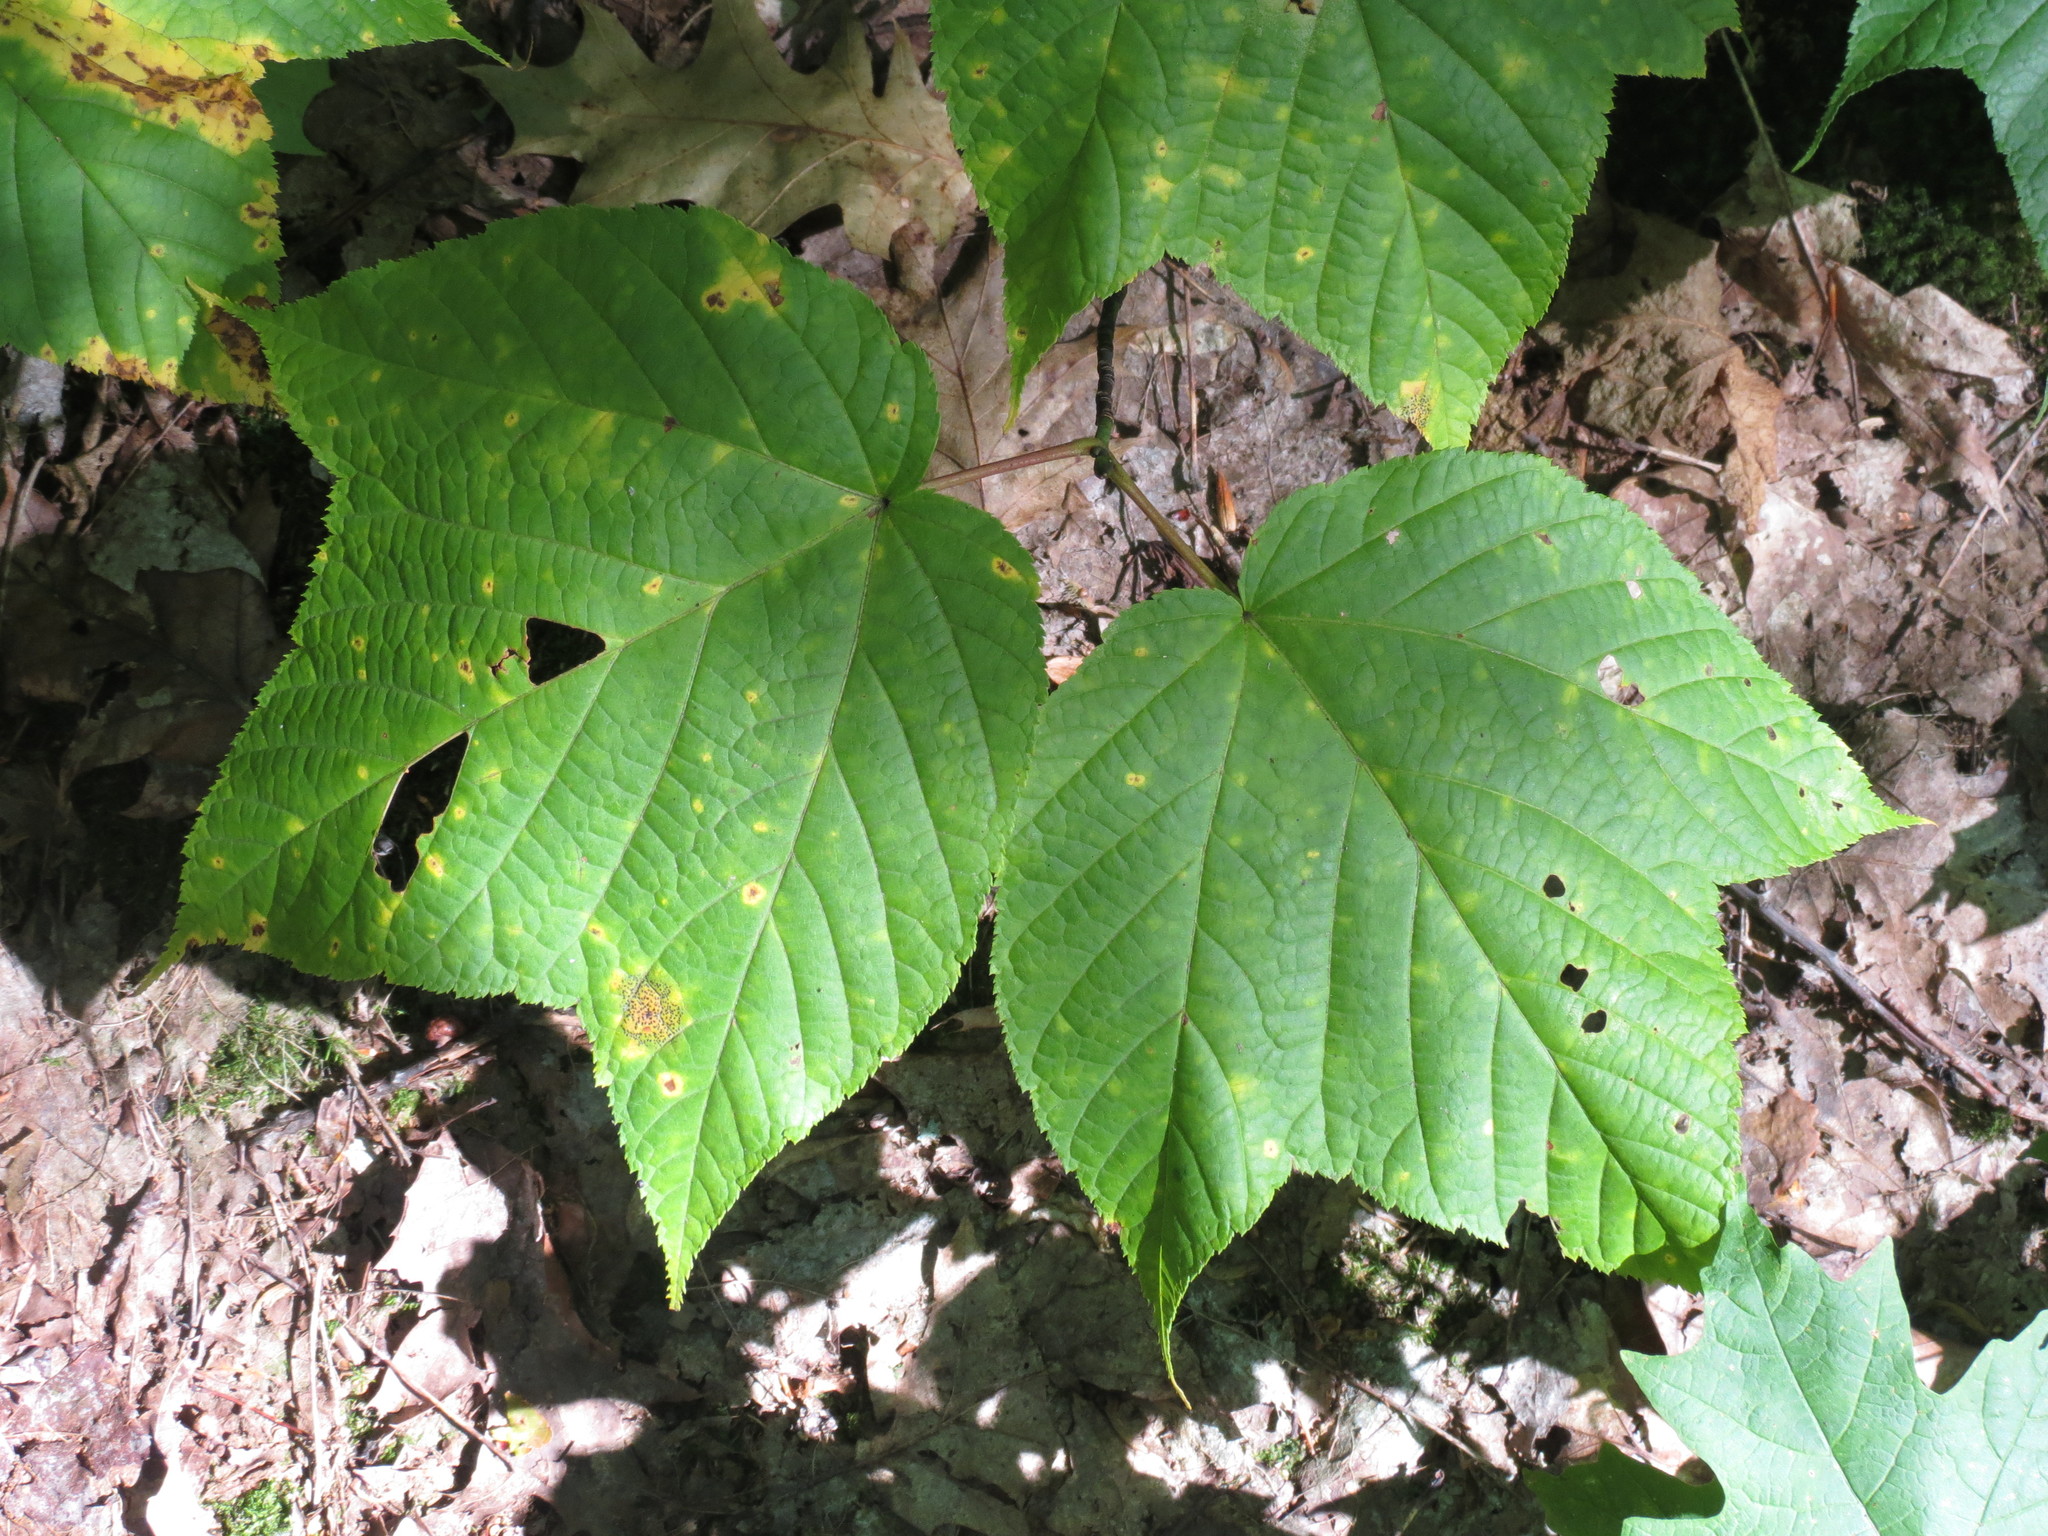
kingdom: Plantae
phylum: Tracheophyta
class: Magnoliopsida
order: Sapindales
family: Sapindaceae
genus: Acer
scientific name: Acer pensylvanicum
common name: Moosewood
